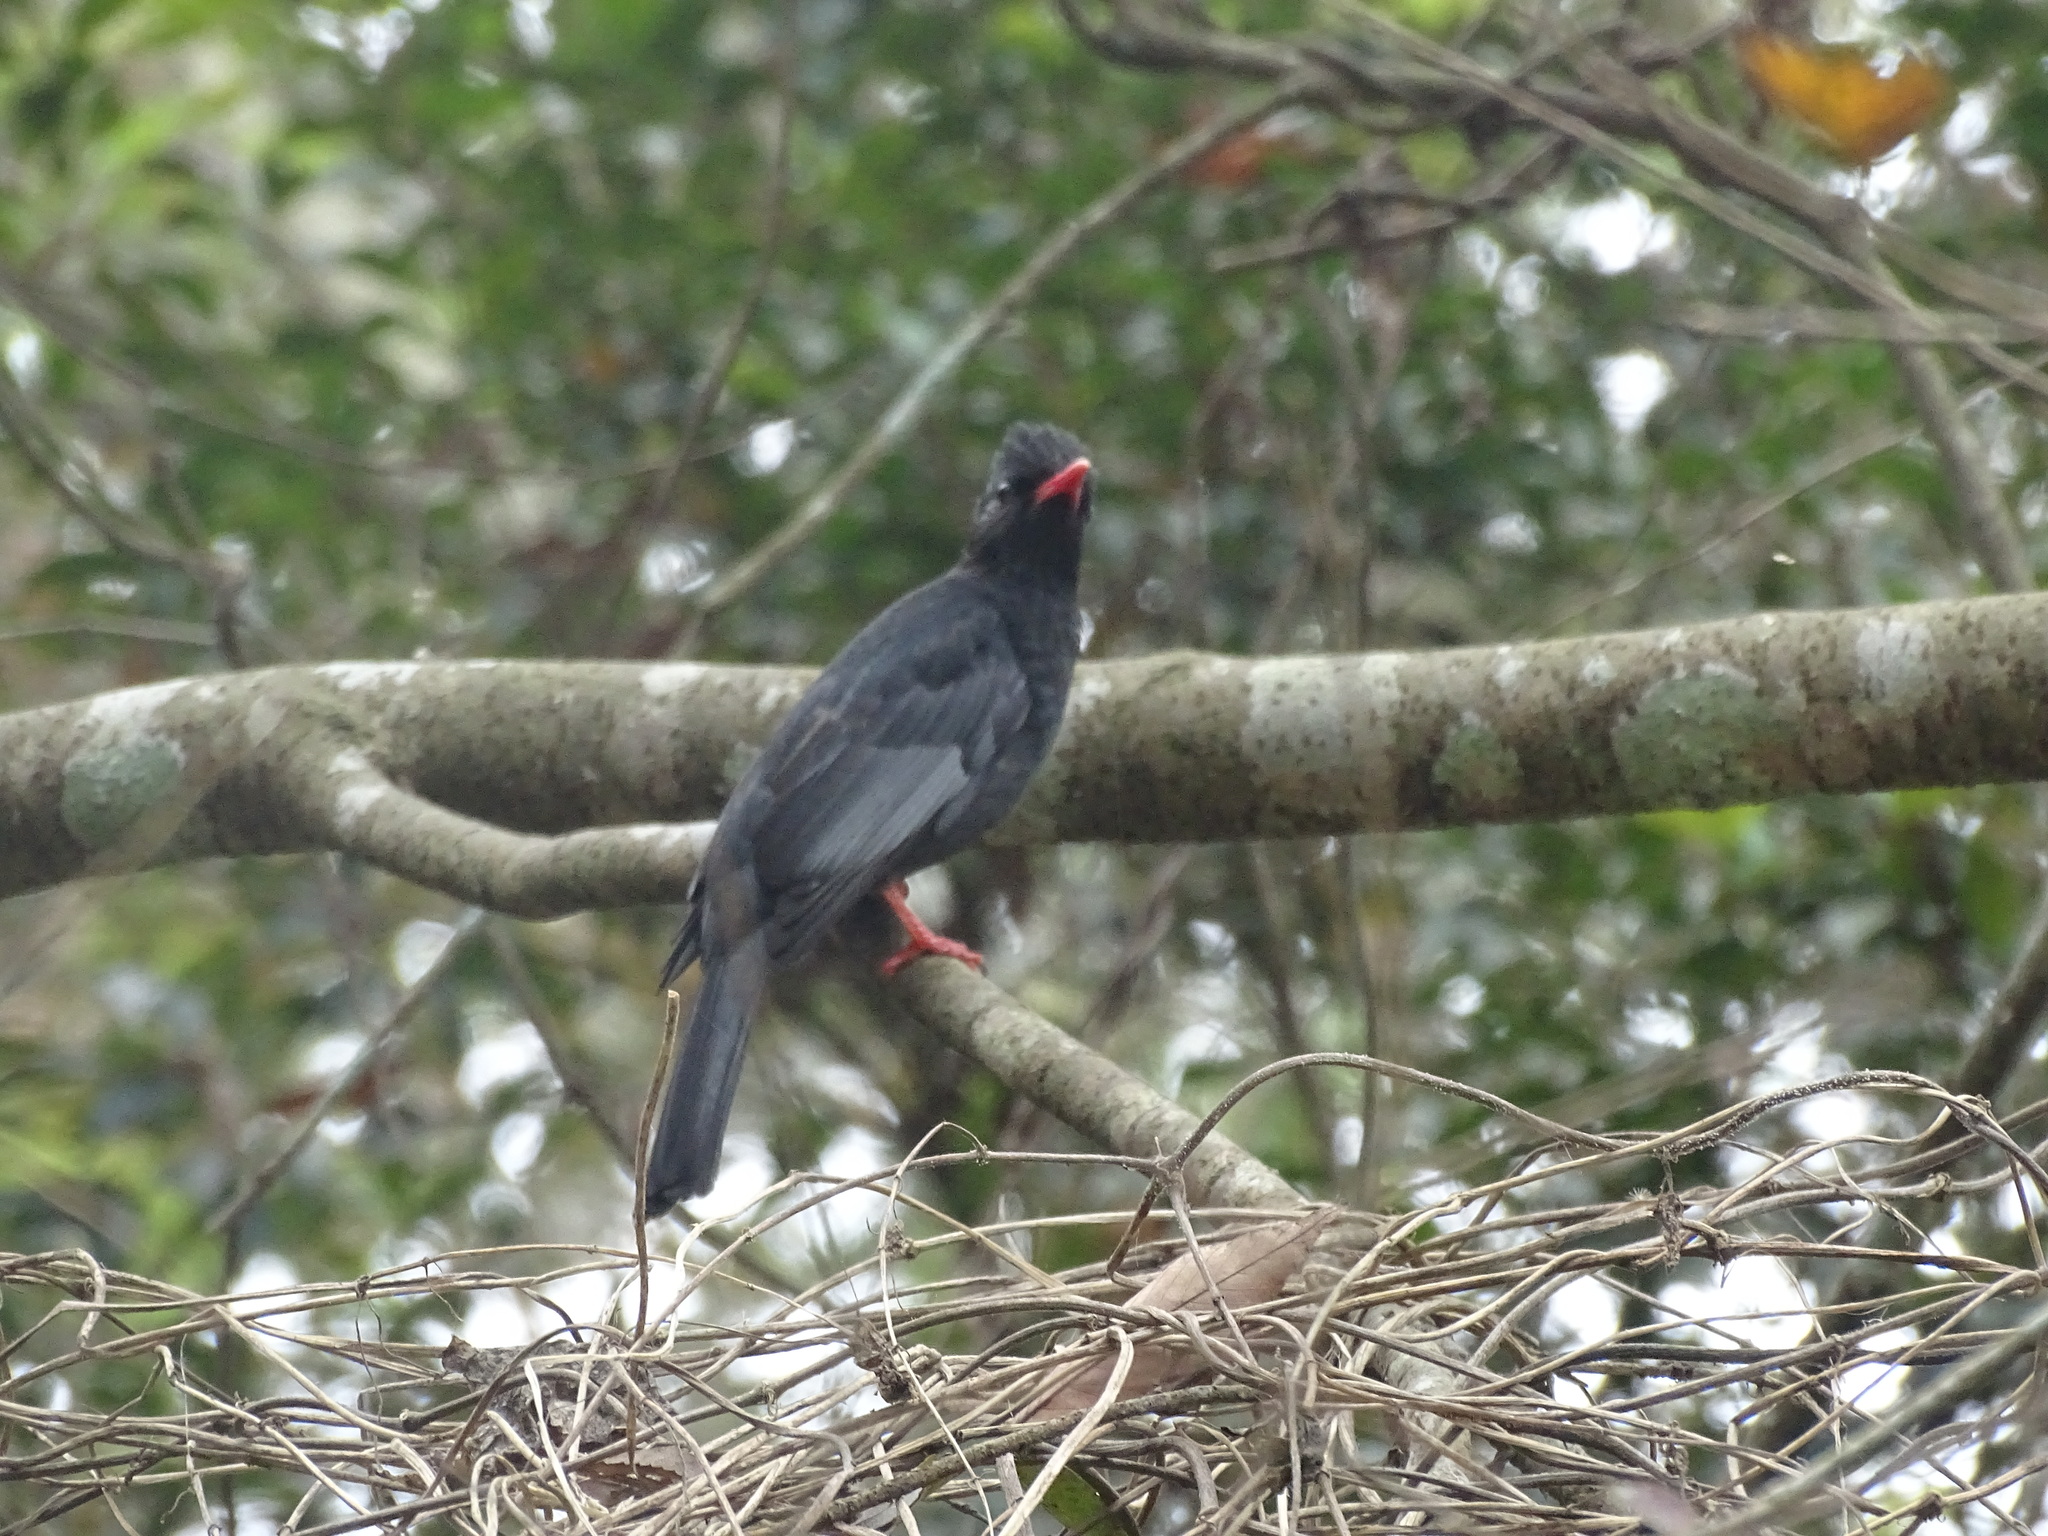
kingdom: Animalia
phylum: Chordata
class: Aves
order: Passeriformes
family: Pycnonotidae
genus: Hypsipetes
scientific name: Hypsipetes leucocephalus
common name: Black bulbul
